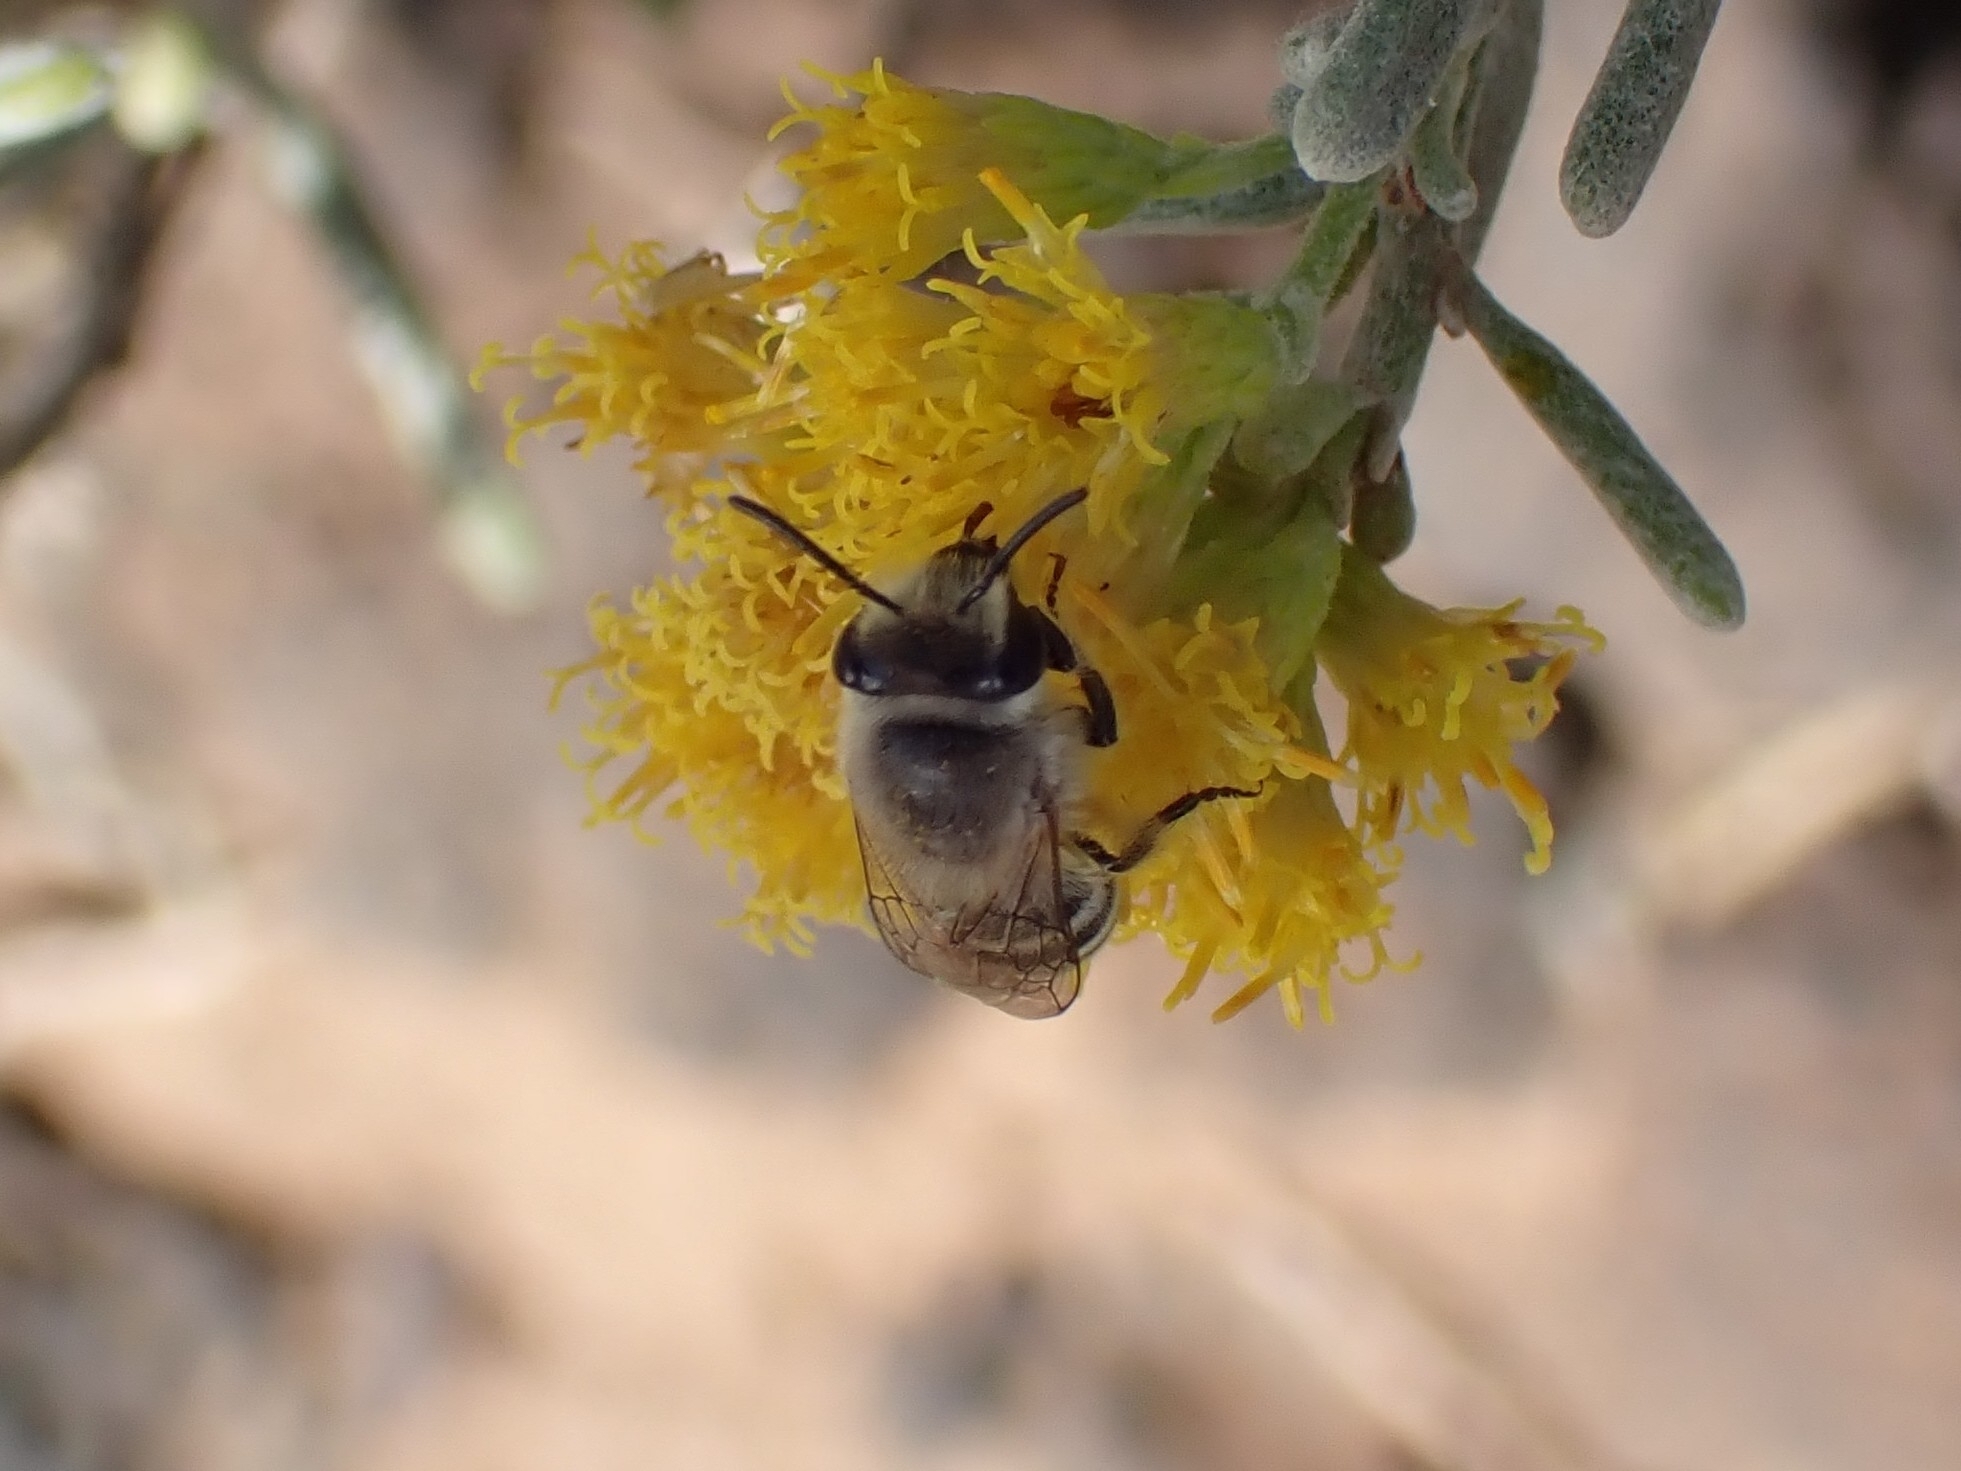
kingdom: Animalia
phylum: Arthropoda
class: Insecta
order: Hymenoptera
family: Colletidae
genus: Colletes
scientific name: Colletes moricei
